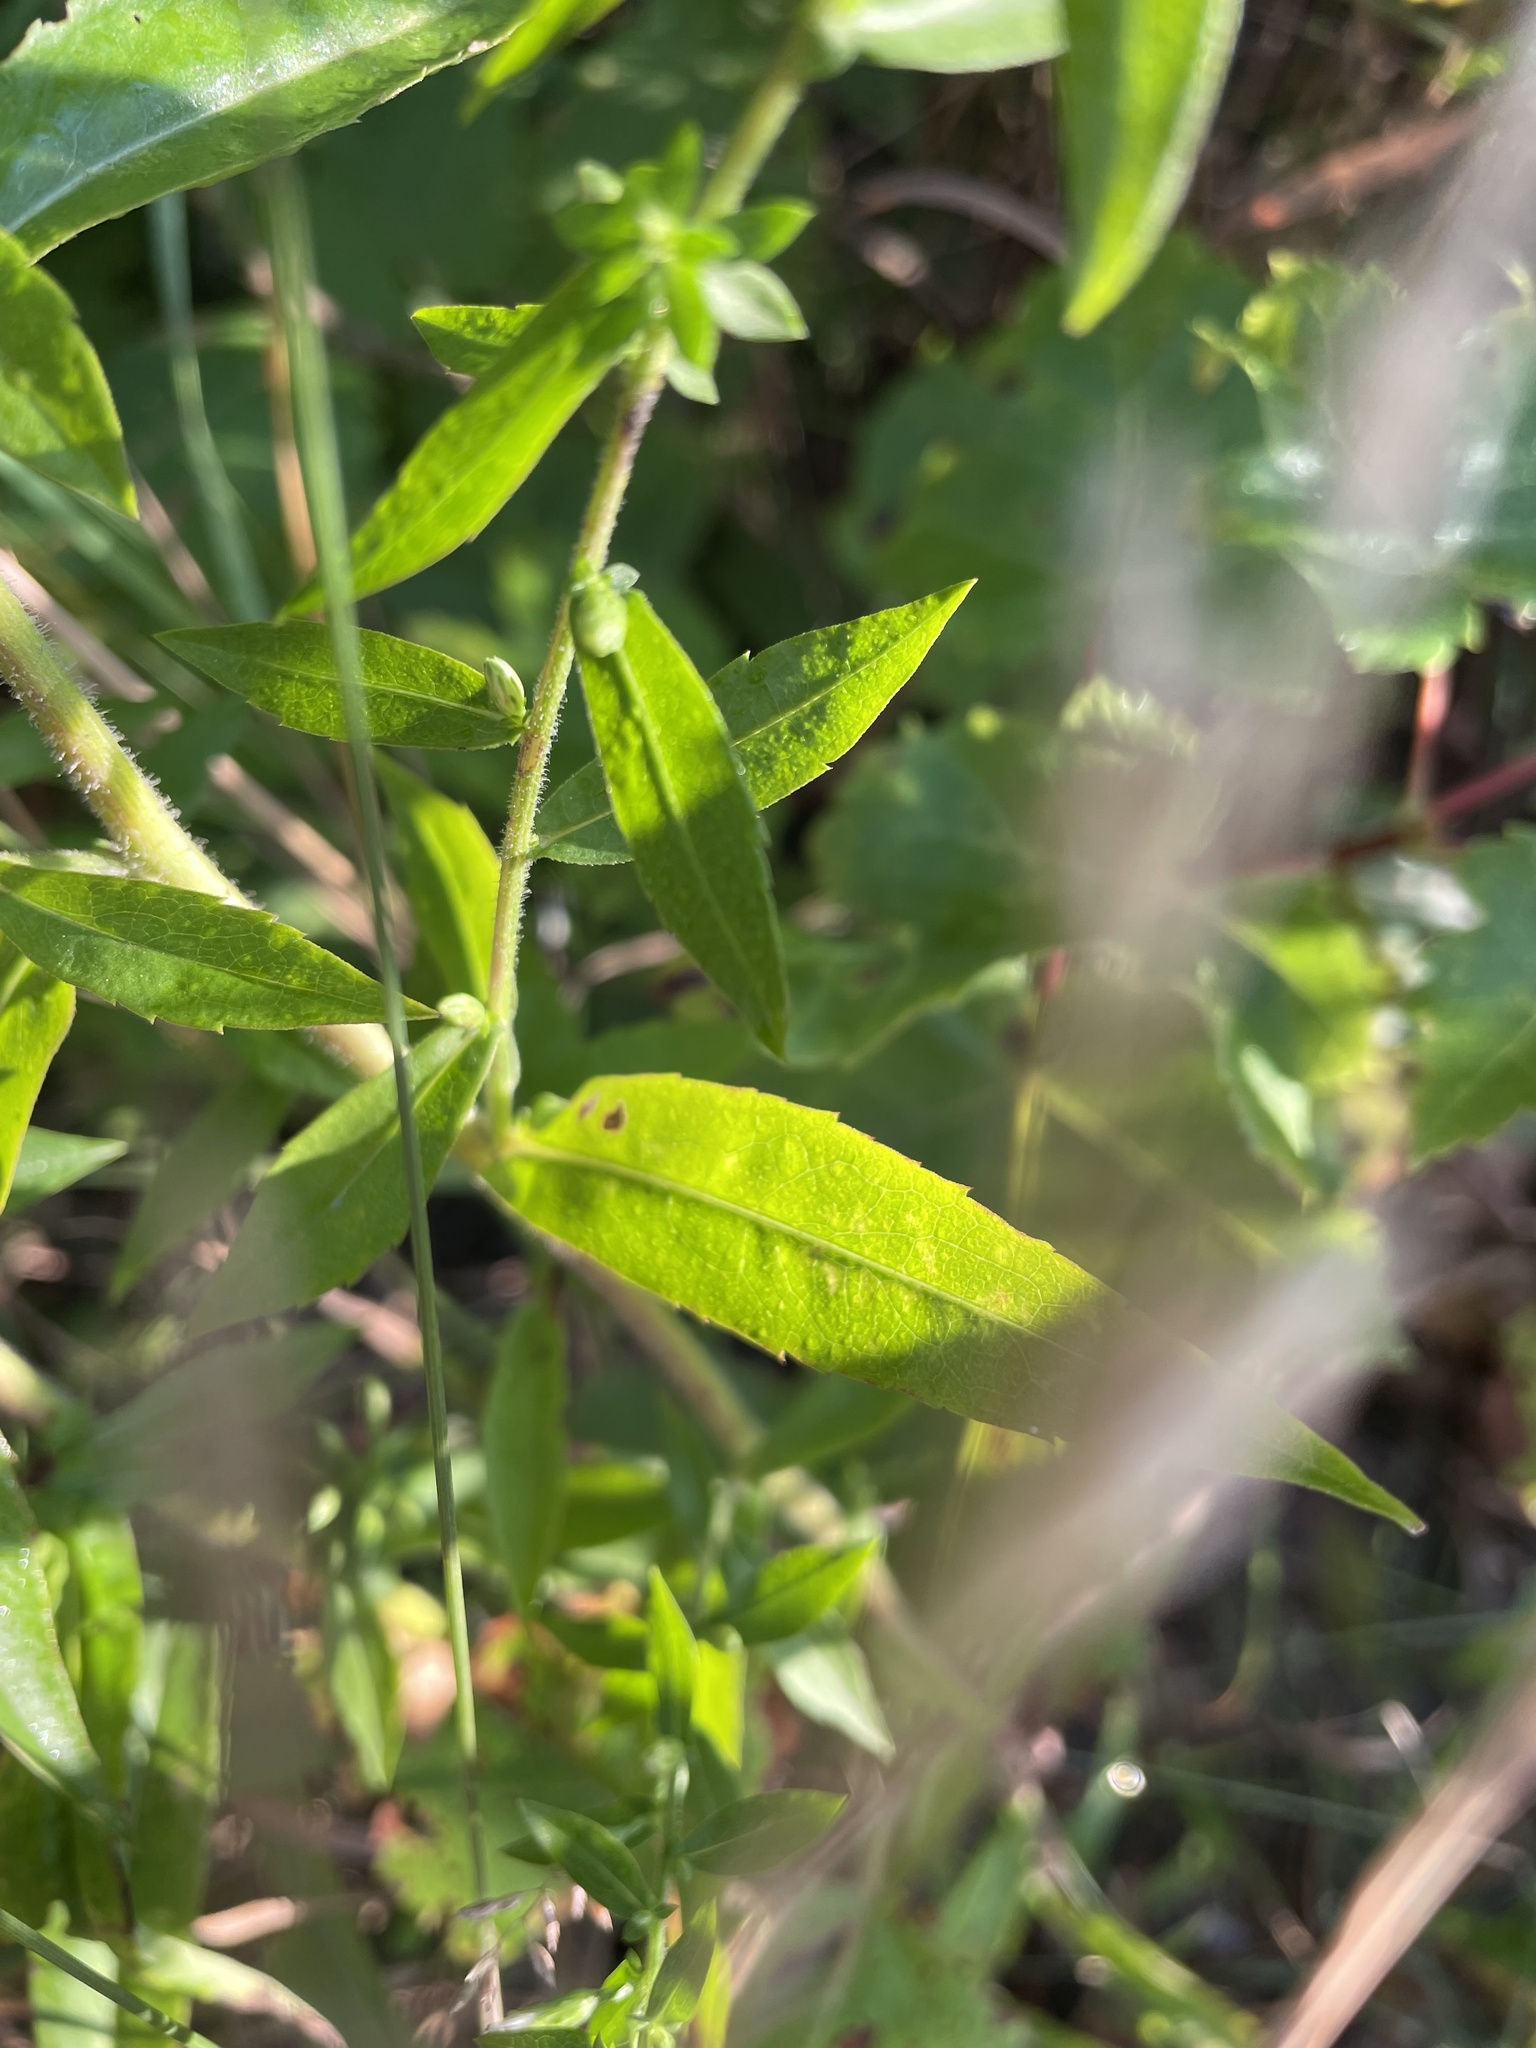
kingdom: Plantae
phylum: Tracheophyta
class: Magnoliopsida
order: Asterales
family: Asteraceae
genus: Symphyotrichum
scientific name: Symphyotrichum lateriflorum
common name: Calico aster
